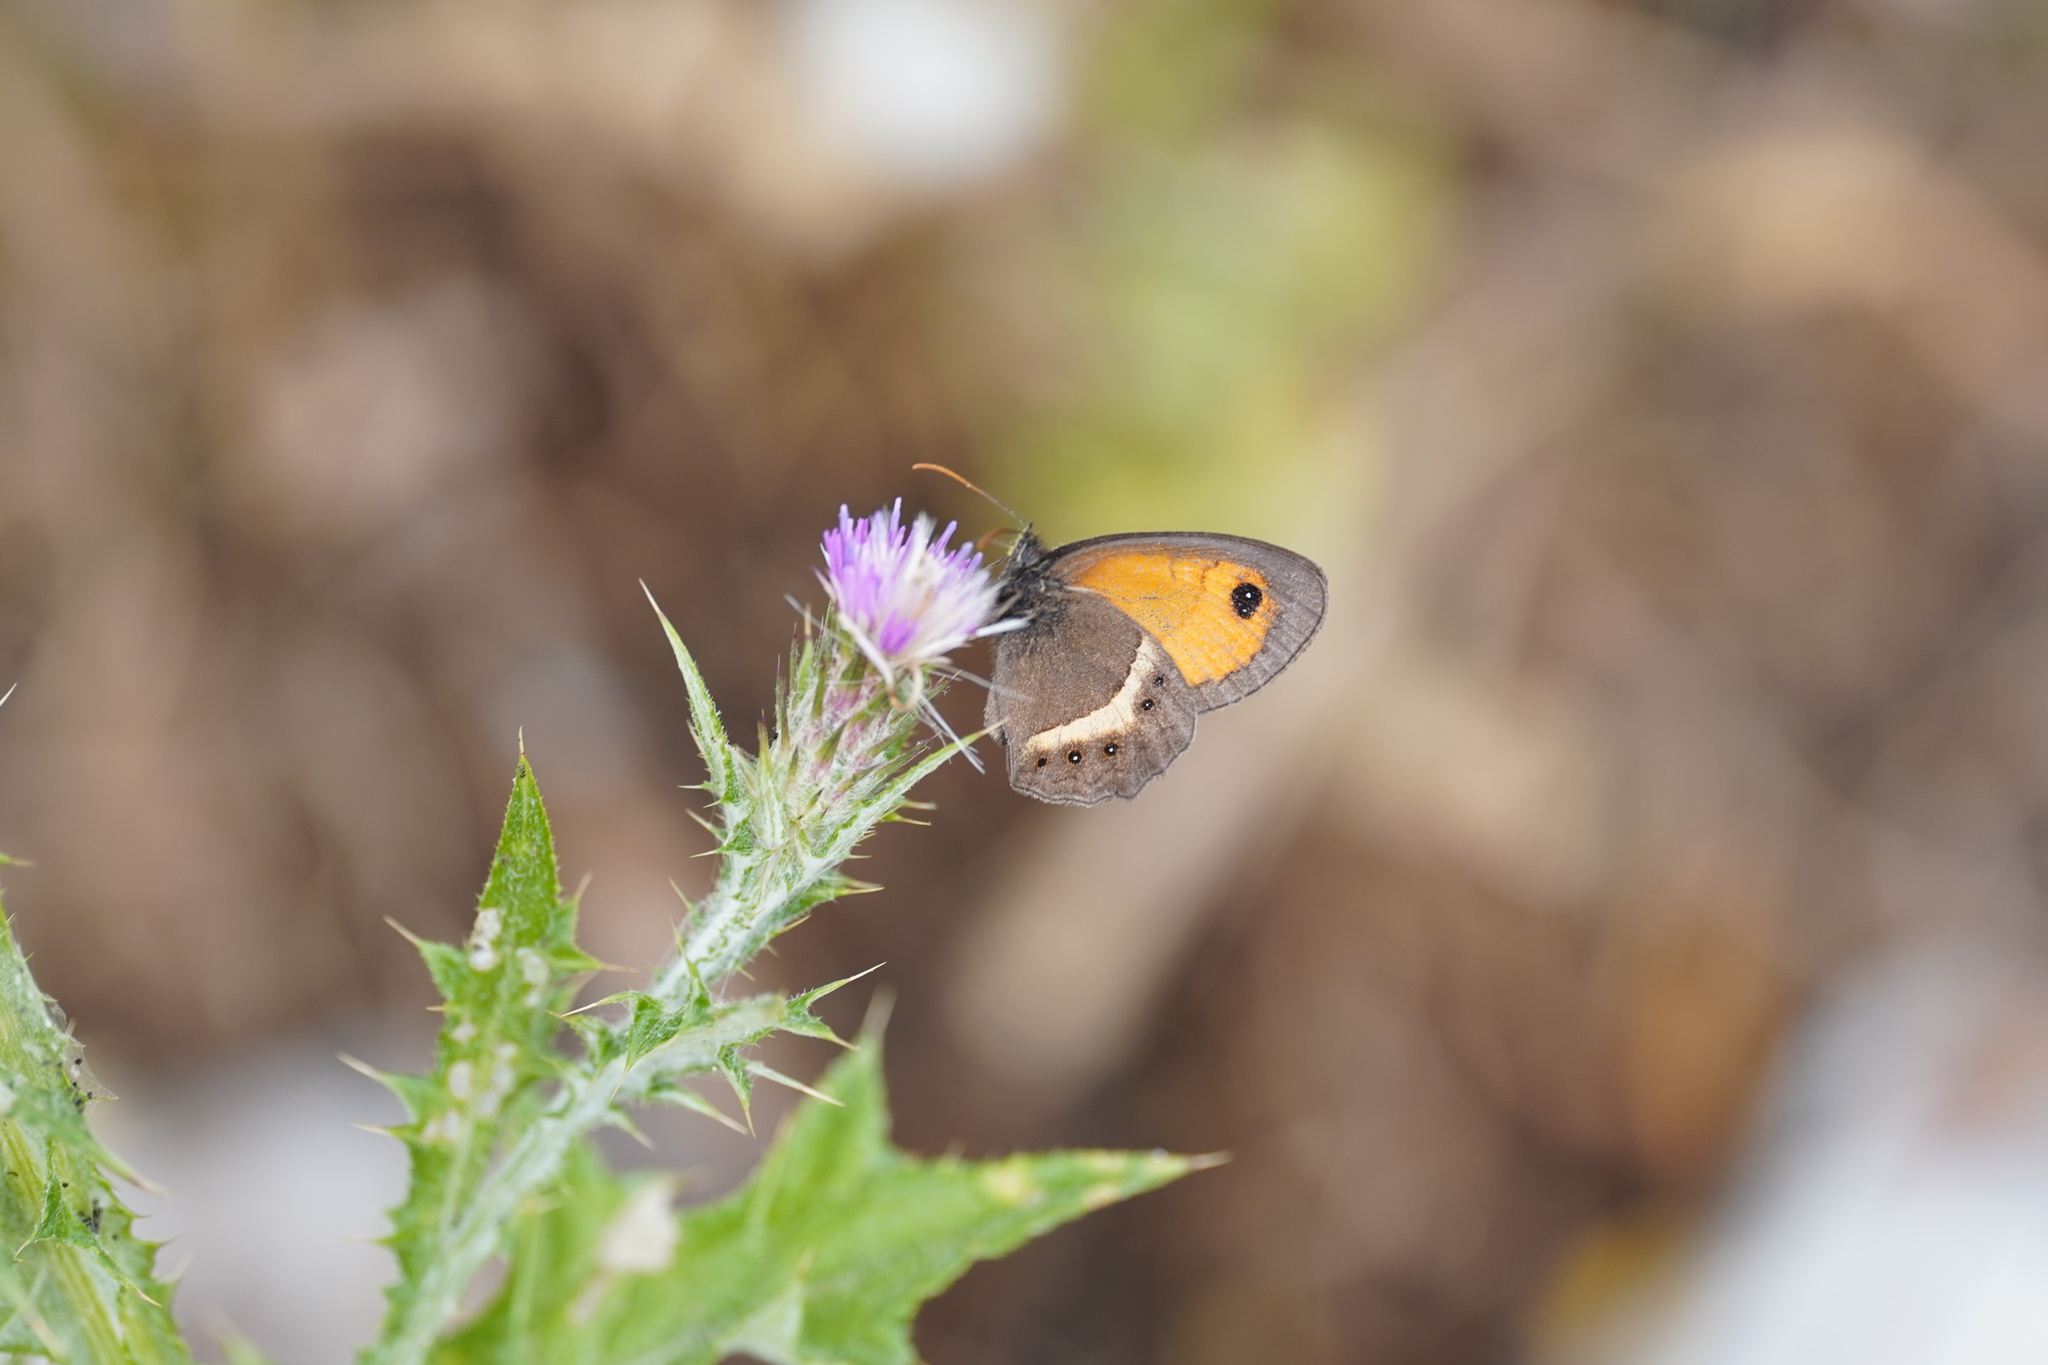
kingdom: Animalia
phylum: Arthropoda
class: Insecta
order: Lepidoptera
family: Nymphalidae
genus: Pyronia
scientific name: Pyronia bathseba
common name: Spanish gatekeeper
